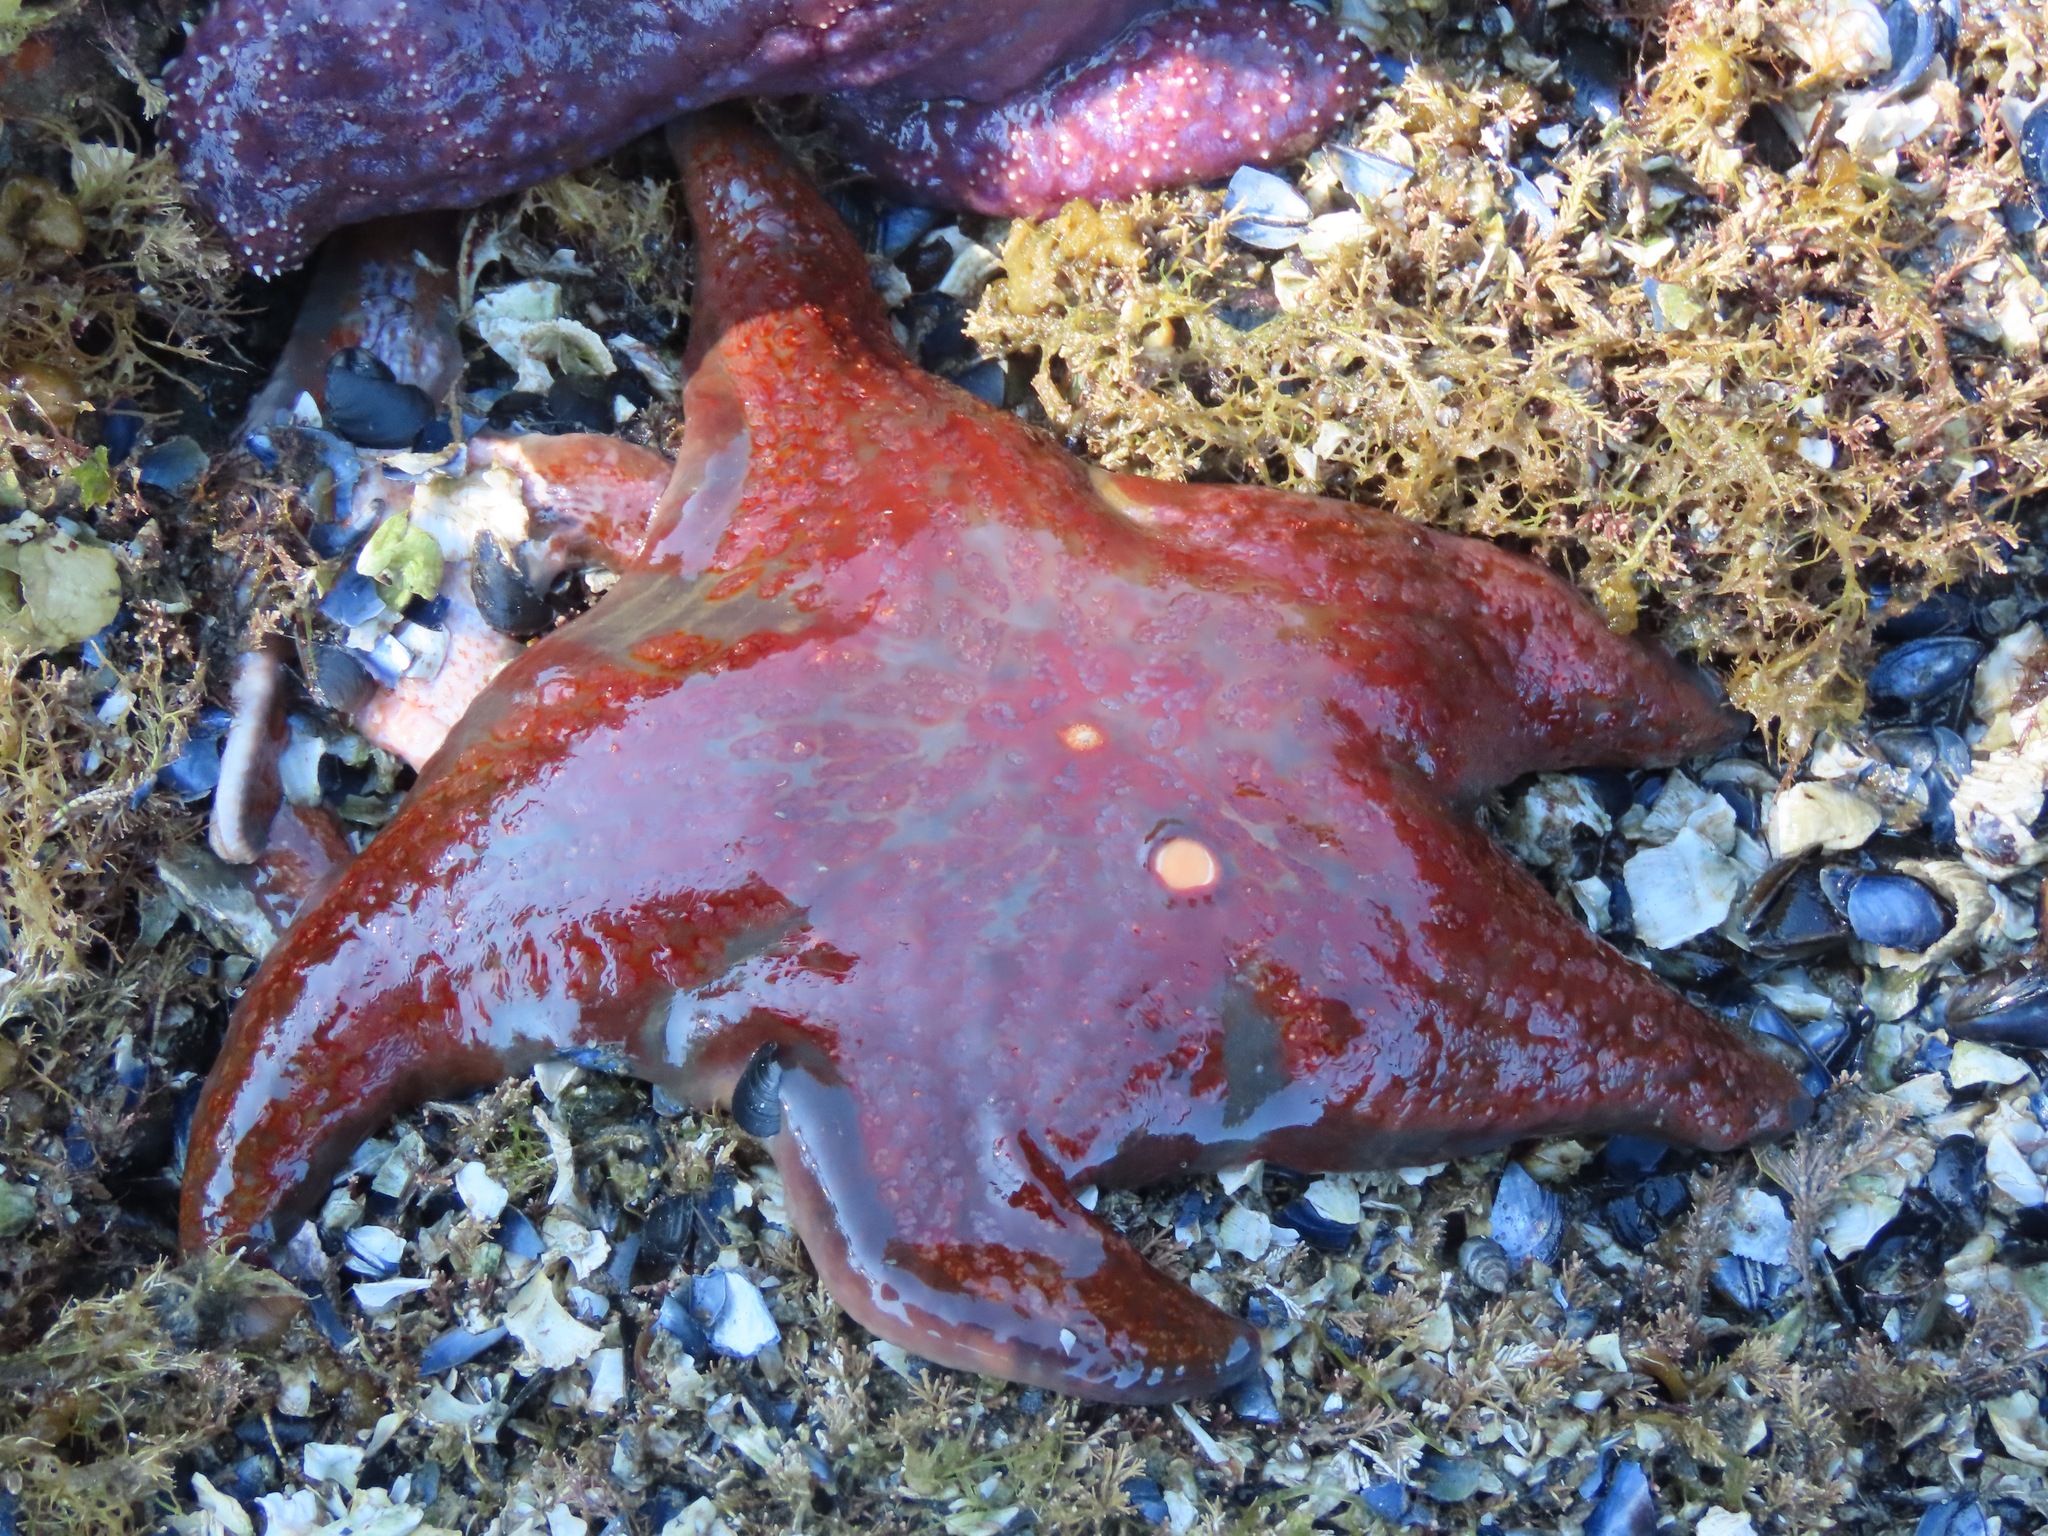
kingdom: Animalia
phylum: Echinodermata
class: Asteroidea
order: Valvatida
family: Asteropseidae
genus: Dermasterias
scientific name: Dermasterias imbricata
